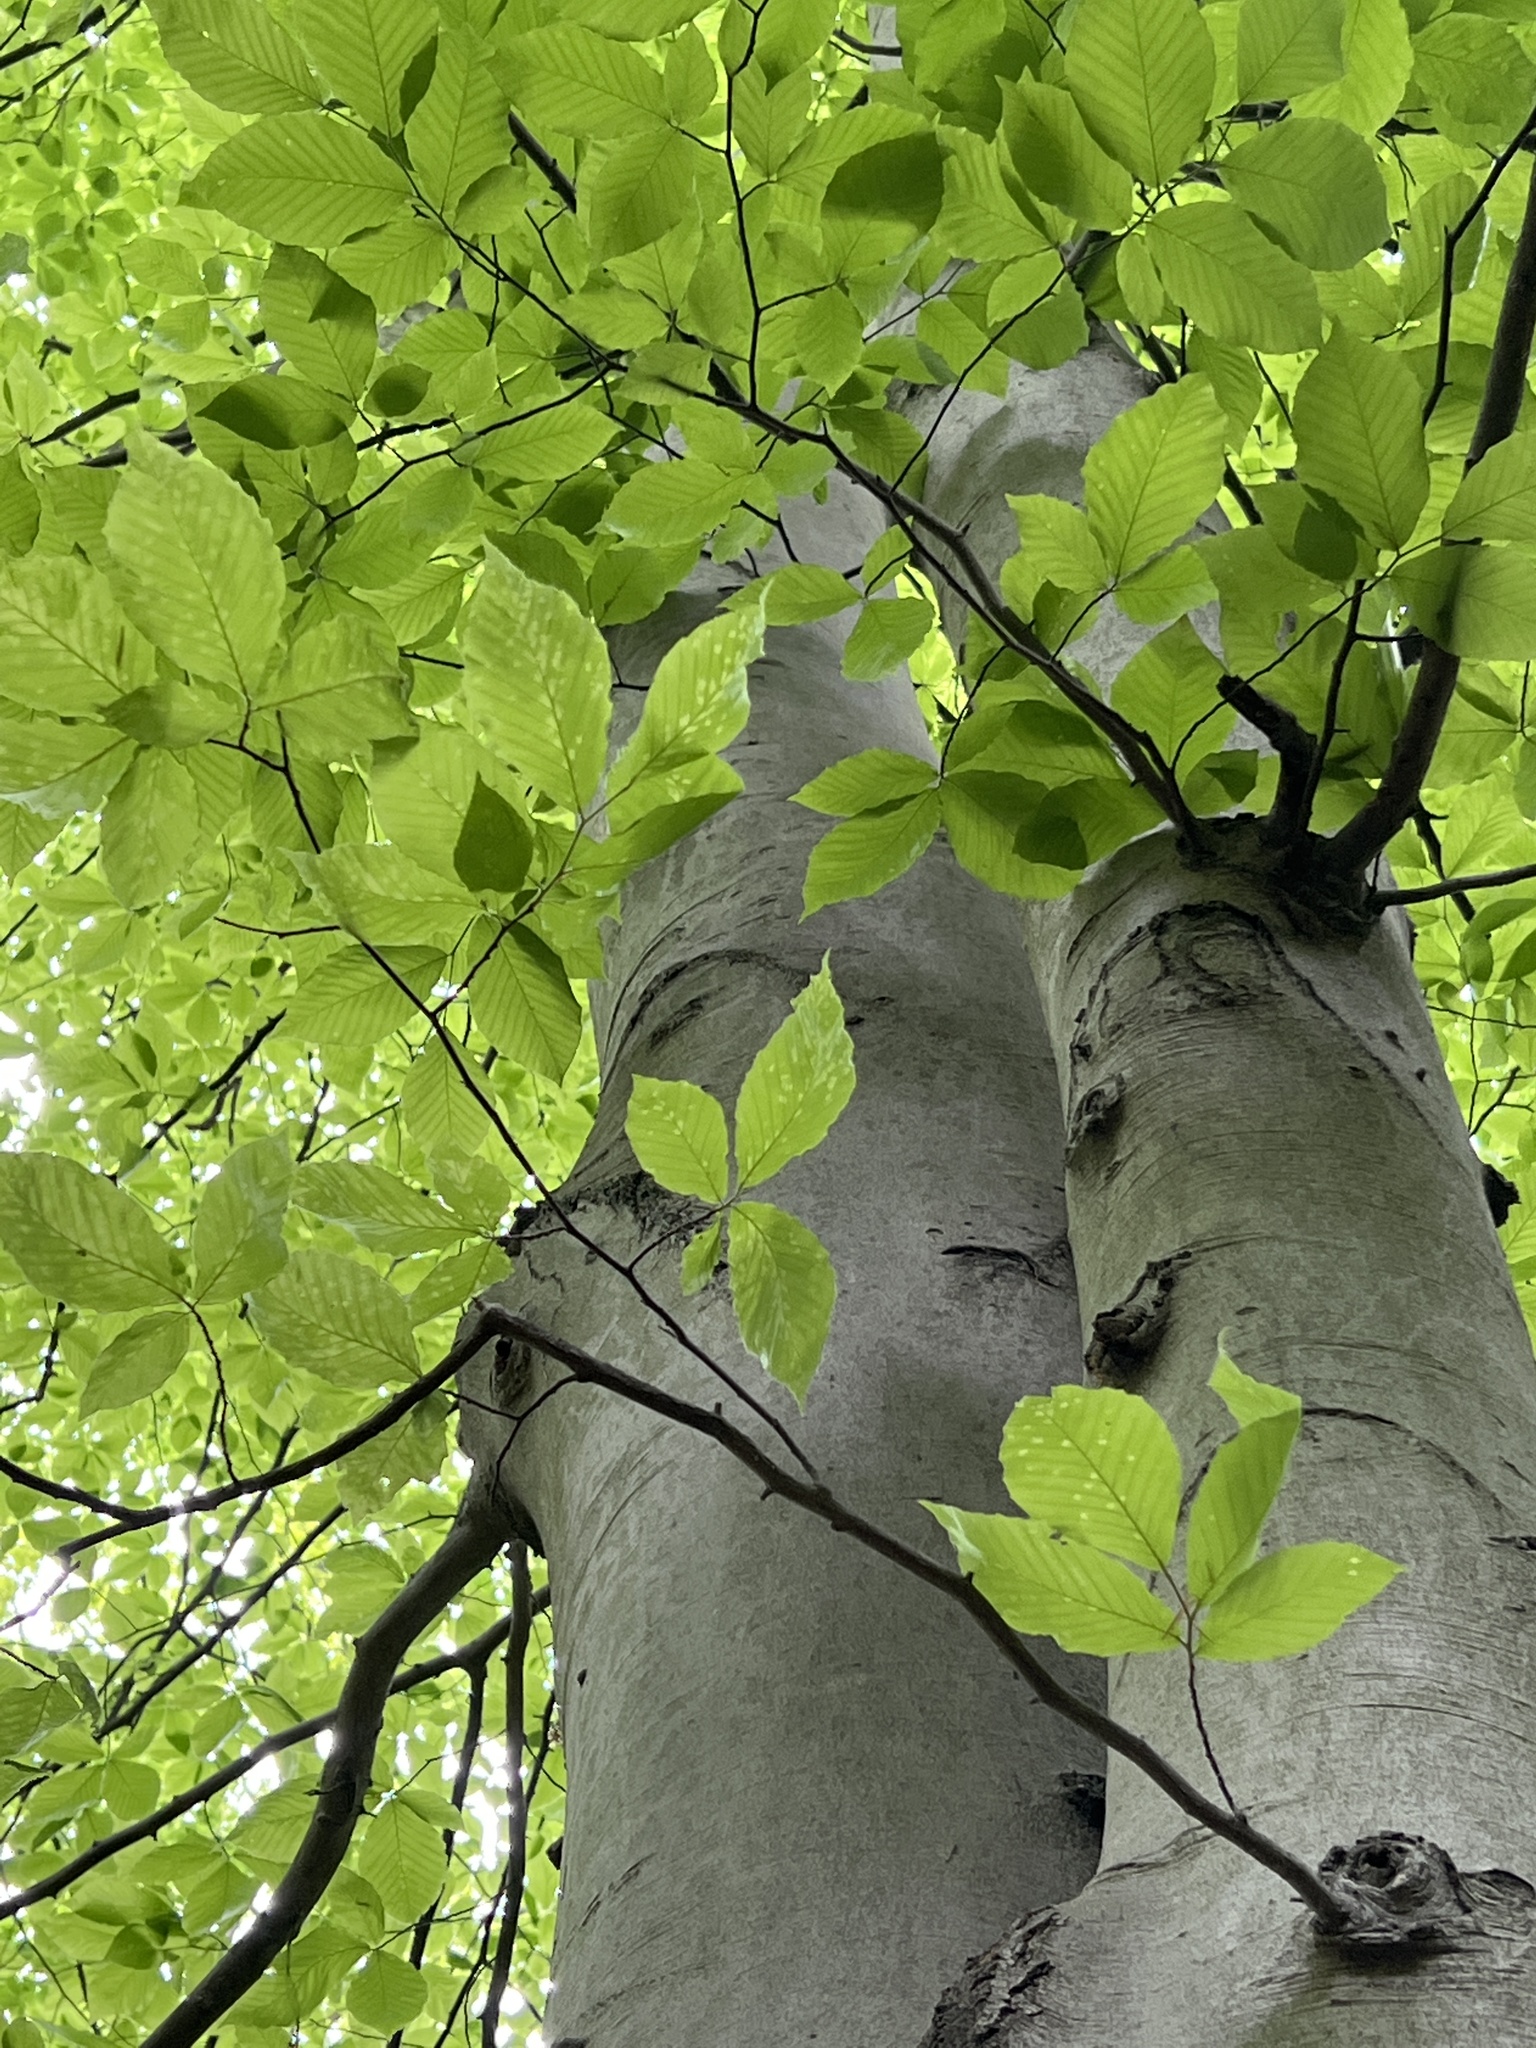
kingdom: Plantae
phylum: Tracheophyta
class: Magnoliopsida
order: Fagales
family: Fagaceae
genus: Fagus
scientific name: Fagus grandifolia
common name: American beech
